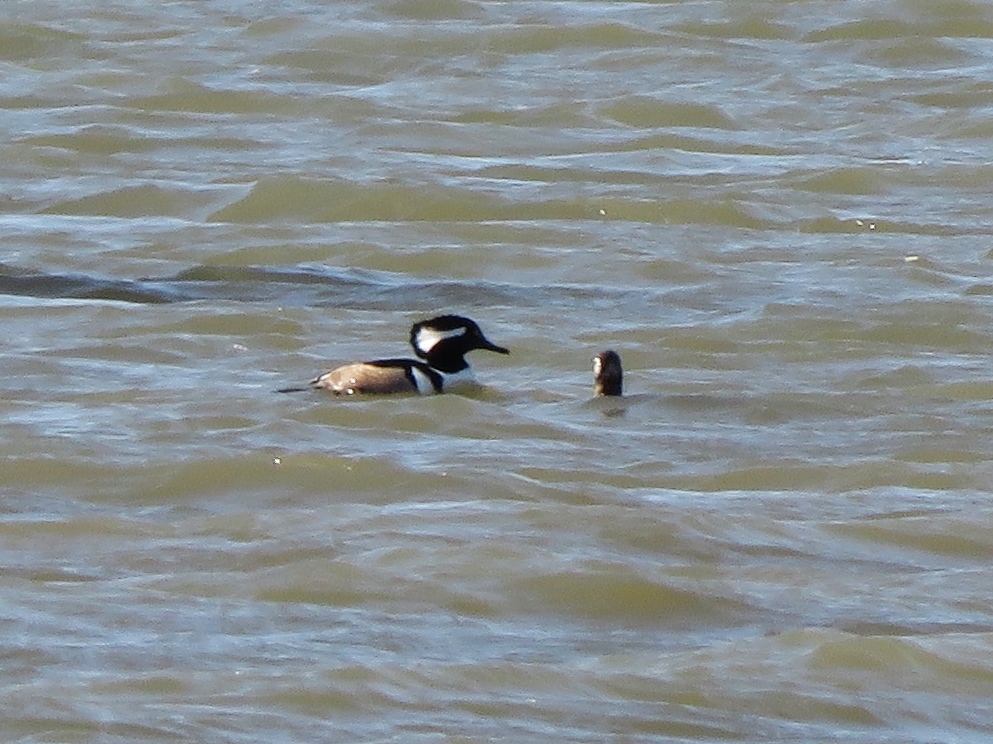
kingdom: Animalia
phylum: Chordata
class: Aves
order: Anseriformes
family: Anatidae
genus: Lophodytes
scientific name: Lophodytes cucullatus
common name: Hooded merganser
